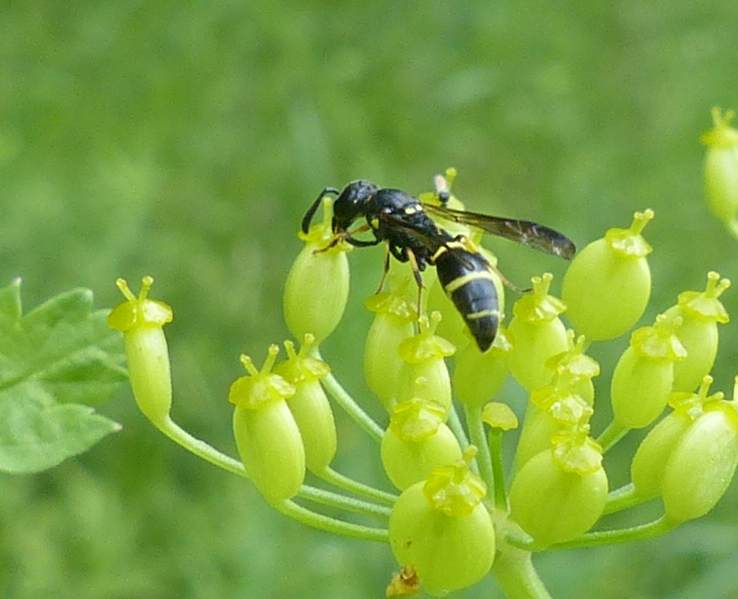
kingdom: Animalia
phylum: Arthropoda
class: Insecta
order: Hymenoptera
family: Eumenidae
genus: Symmorphus
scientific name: Symmorphus
